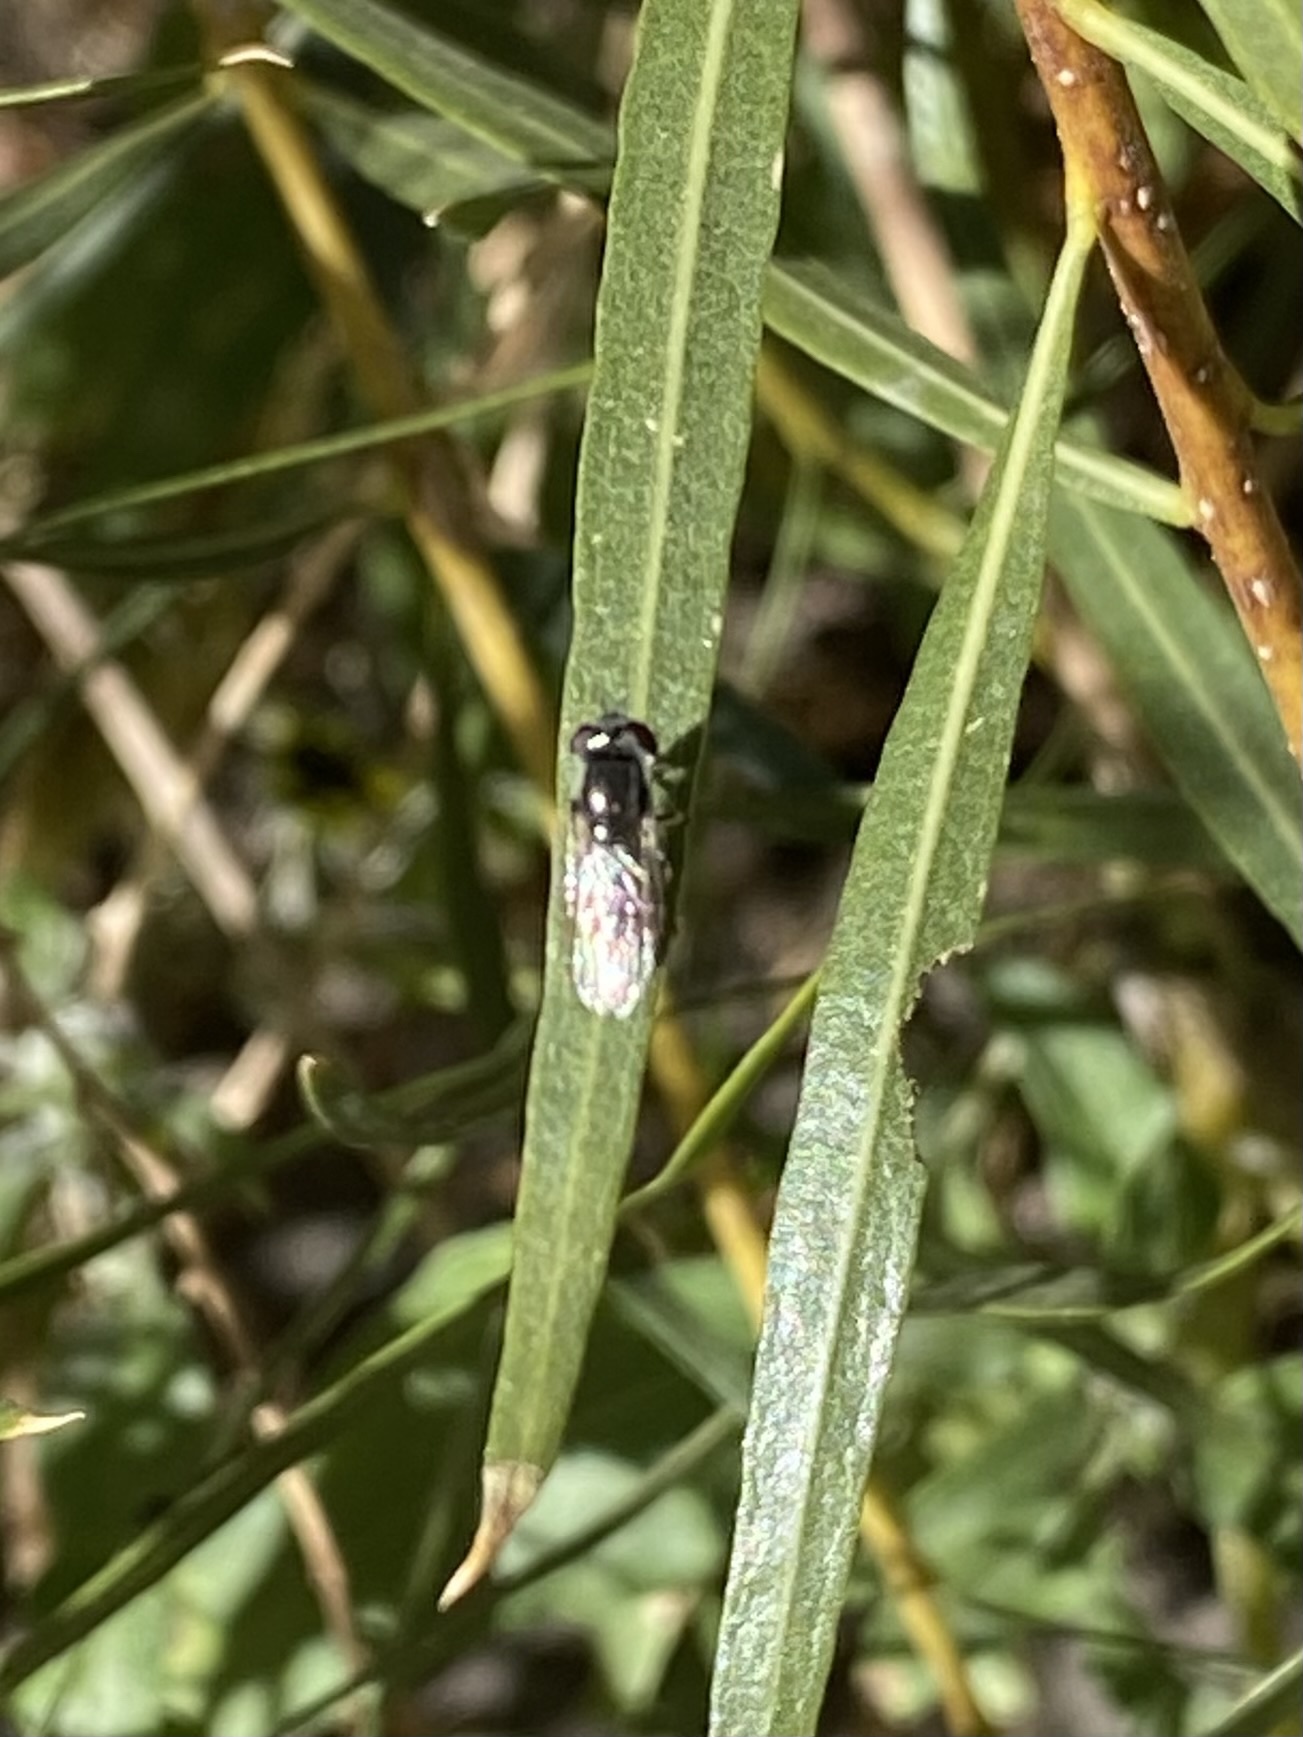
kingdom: Animalia
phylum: Arthropoda
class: Insecta
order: Diptera
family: Syrphidae
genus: Platycheirus
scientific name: Platycheirus
